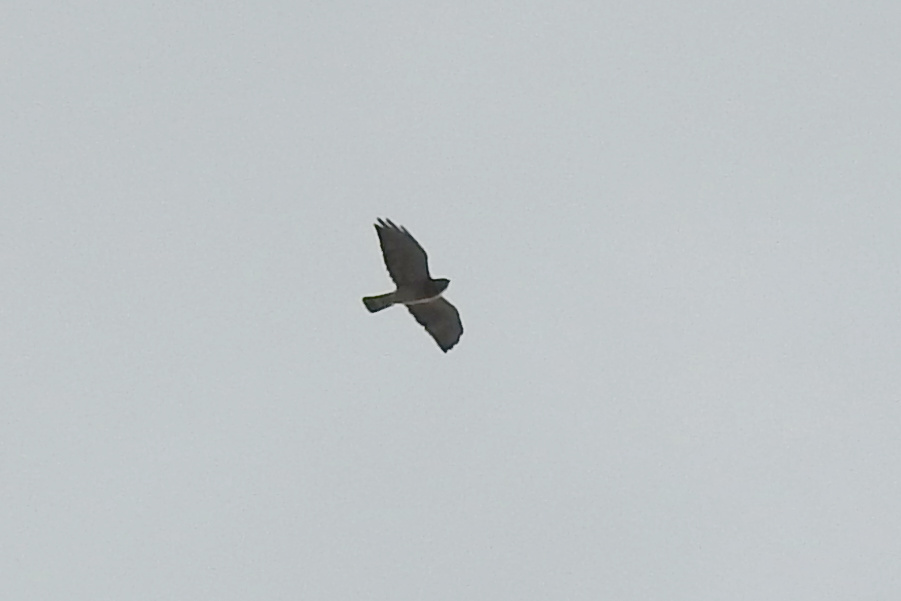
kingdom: Animalia
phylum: Chordata
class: Aves
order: Accipitriformes
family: Accipitridae
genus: Buteo
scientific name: Buteo platypterus
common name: Broad-winged hawk
